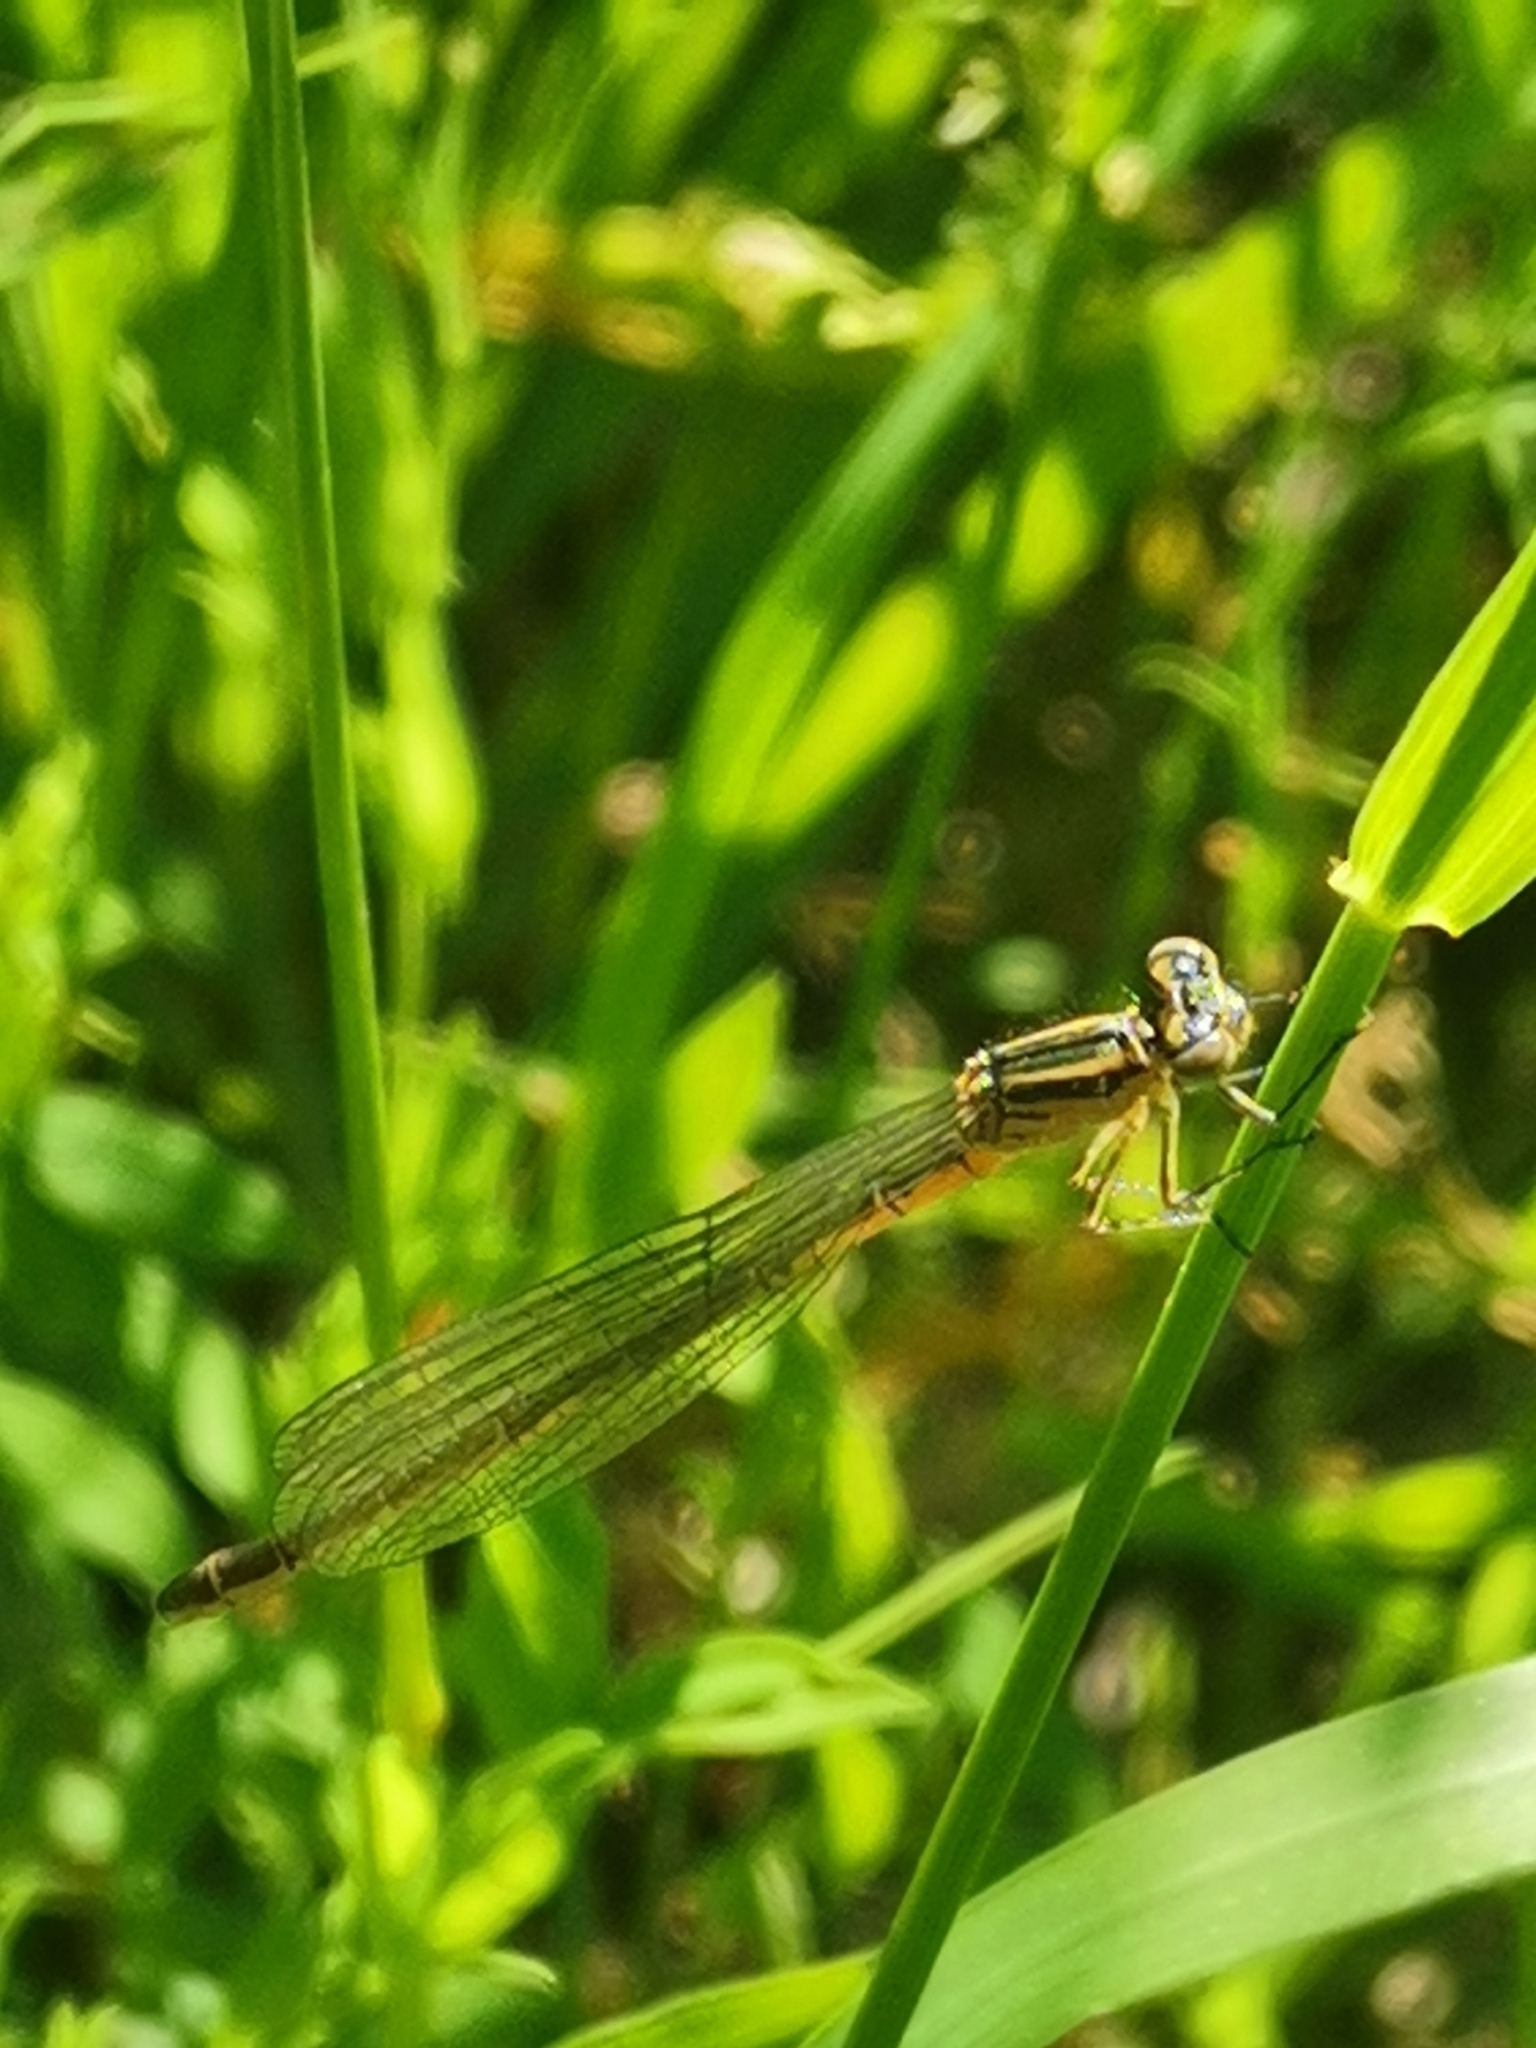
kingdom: Animalia
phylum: Arthropoda
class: Insecta
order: Odonata
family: Coenagrionidae
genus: Coenagrion
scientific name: Coenagrion hastulatum
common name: Spearhead bluet
